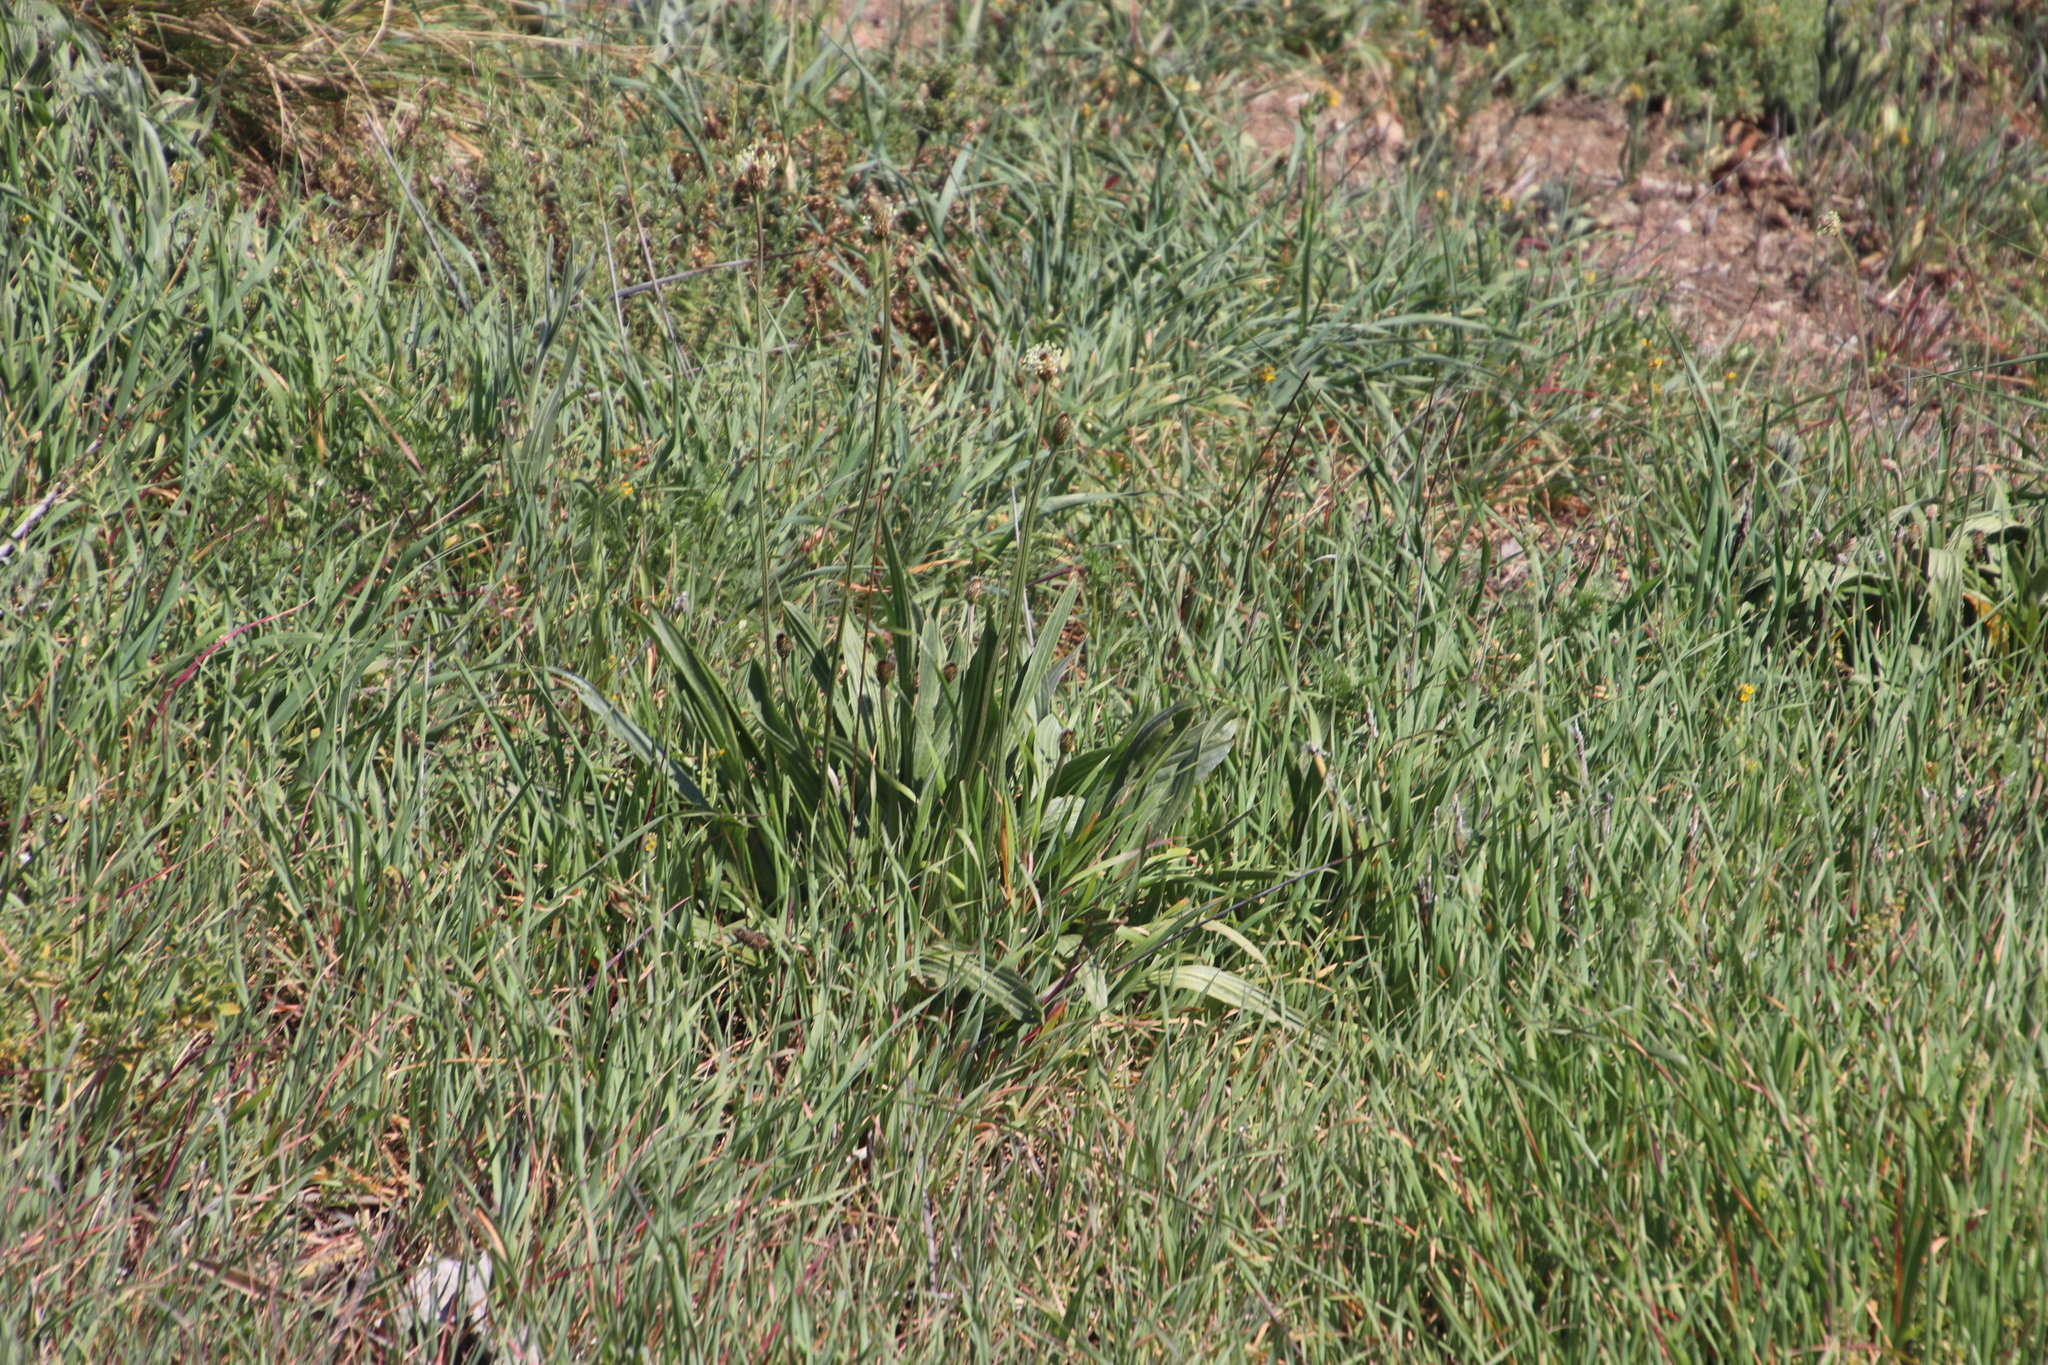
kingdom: Plantae
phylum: Tracheophyta
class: Magnoliopsida
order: Lamiales
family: Plantaginaceae
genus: Plantago
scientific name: Plantago lanceolata
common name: Ribwort plantain
